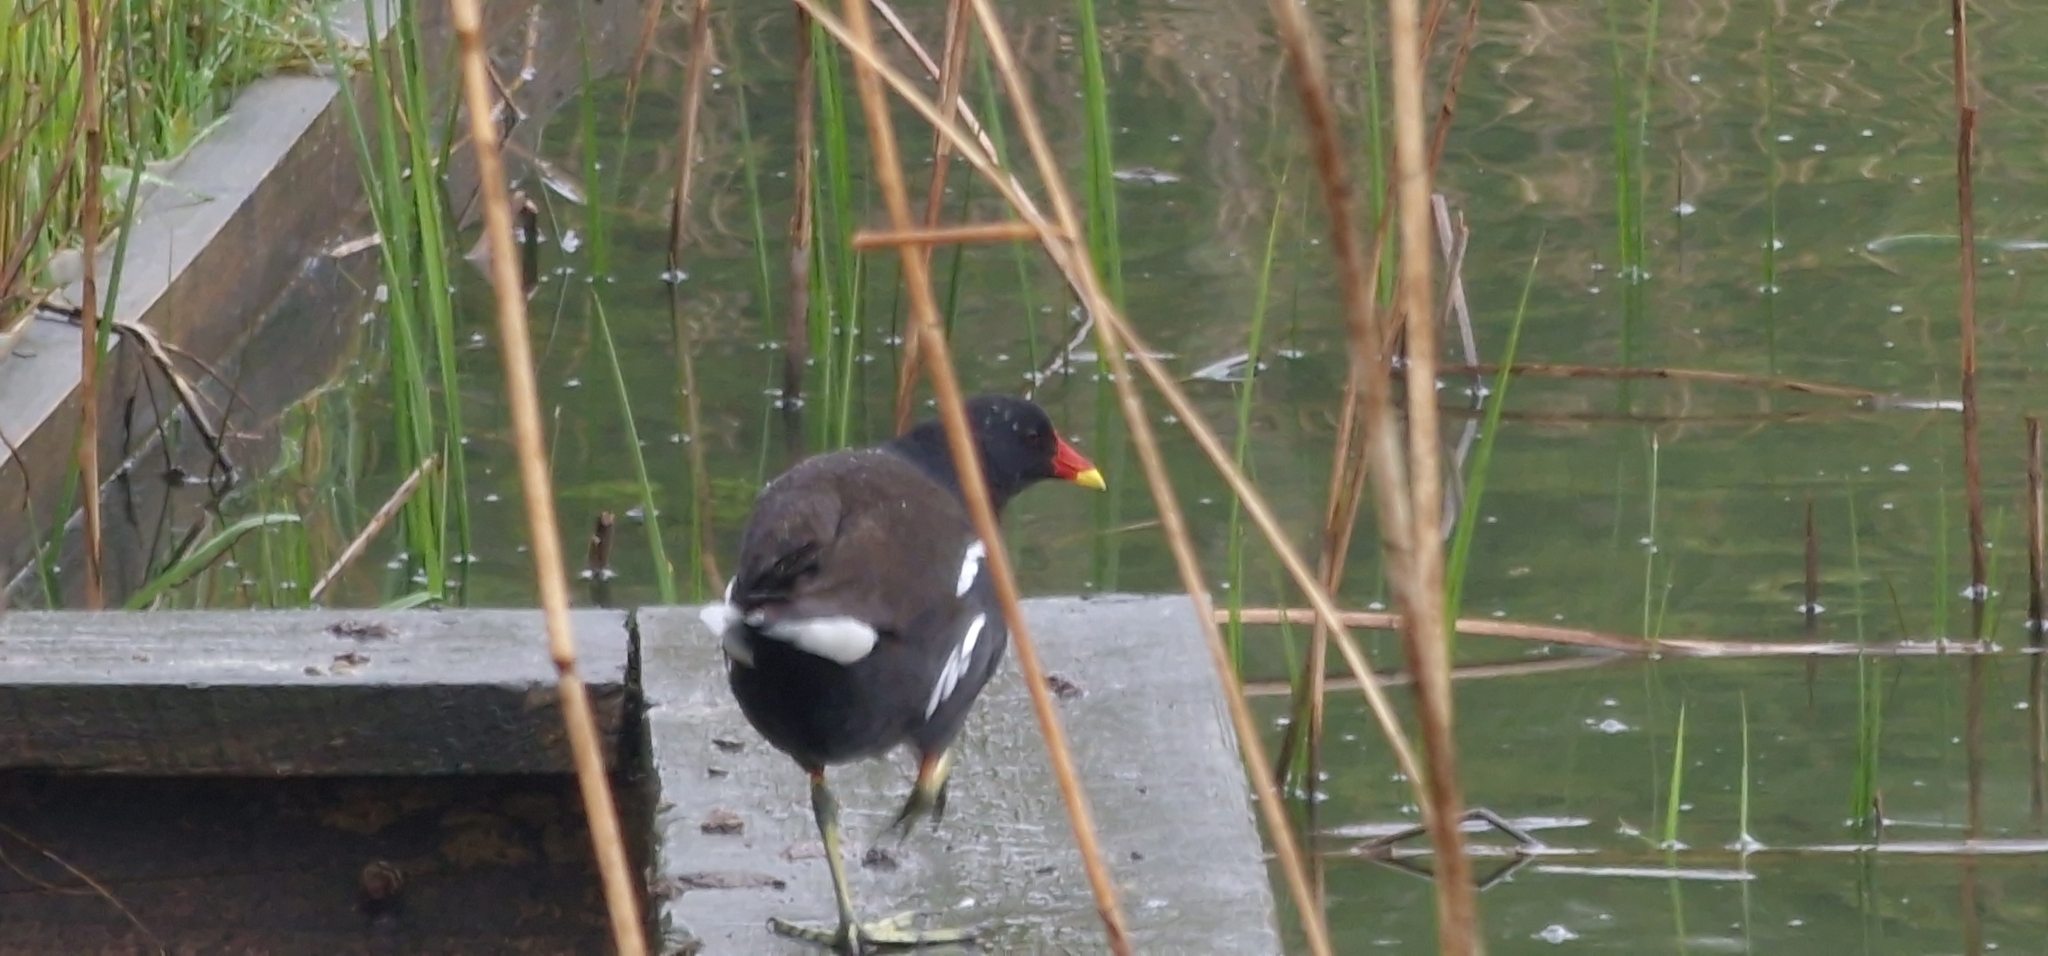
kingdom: Animalia
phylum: Chordata
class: Aves
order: Gruiformes
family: Rallidae
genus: Gallinula
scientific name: Gallinula chloropus
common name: Common moorhen
